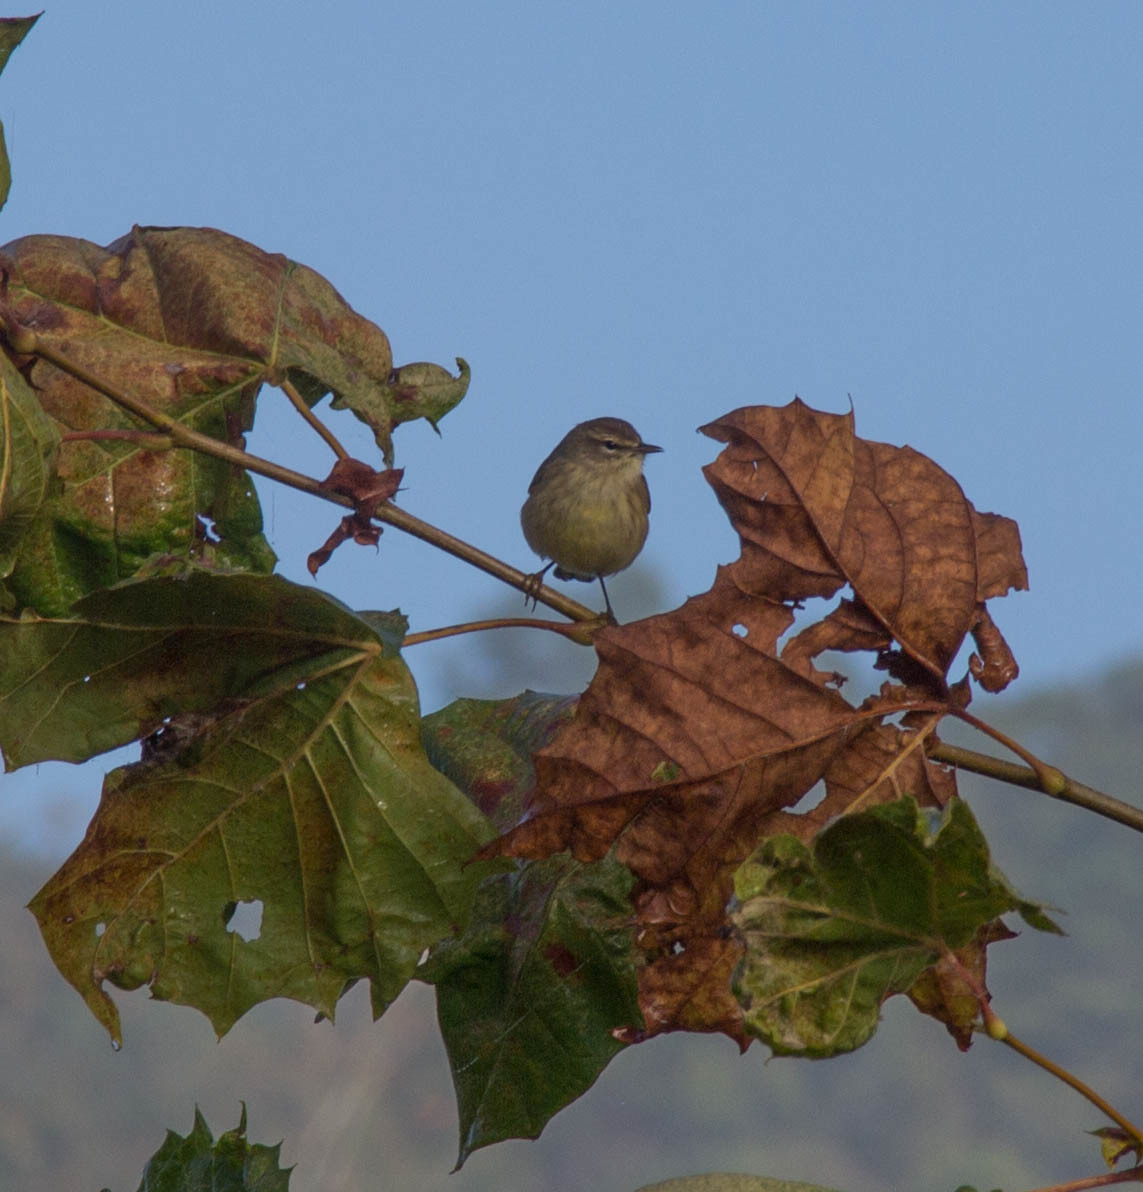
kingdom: Animalia
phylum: Chordata
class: Aves
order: Passeriformes
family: Parulidae
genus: Setophaga
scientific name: Setophaga palmarum
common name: Palm warbler
